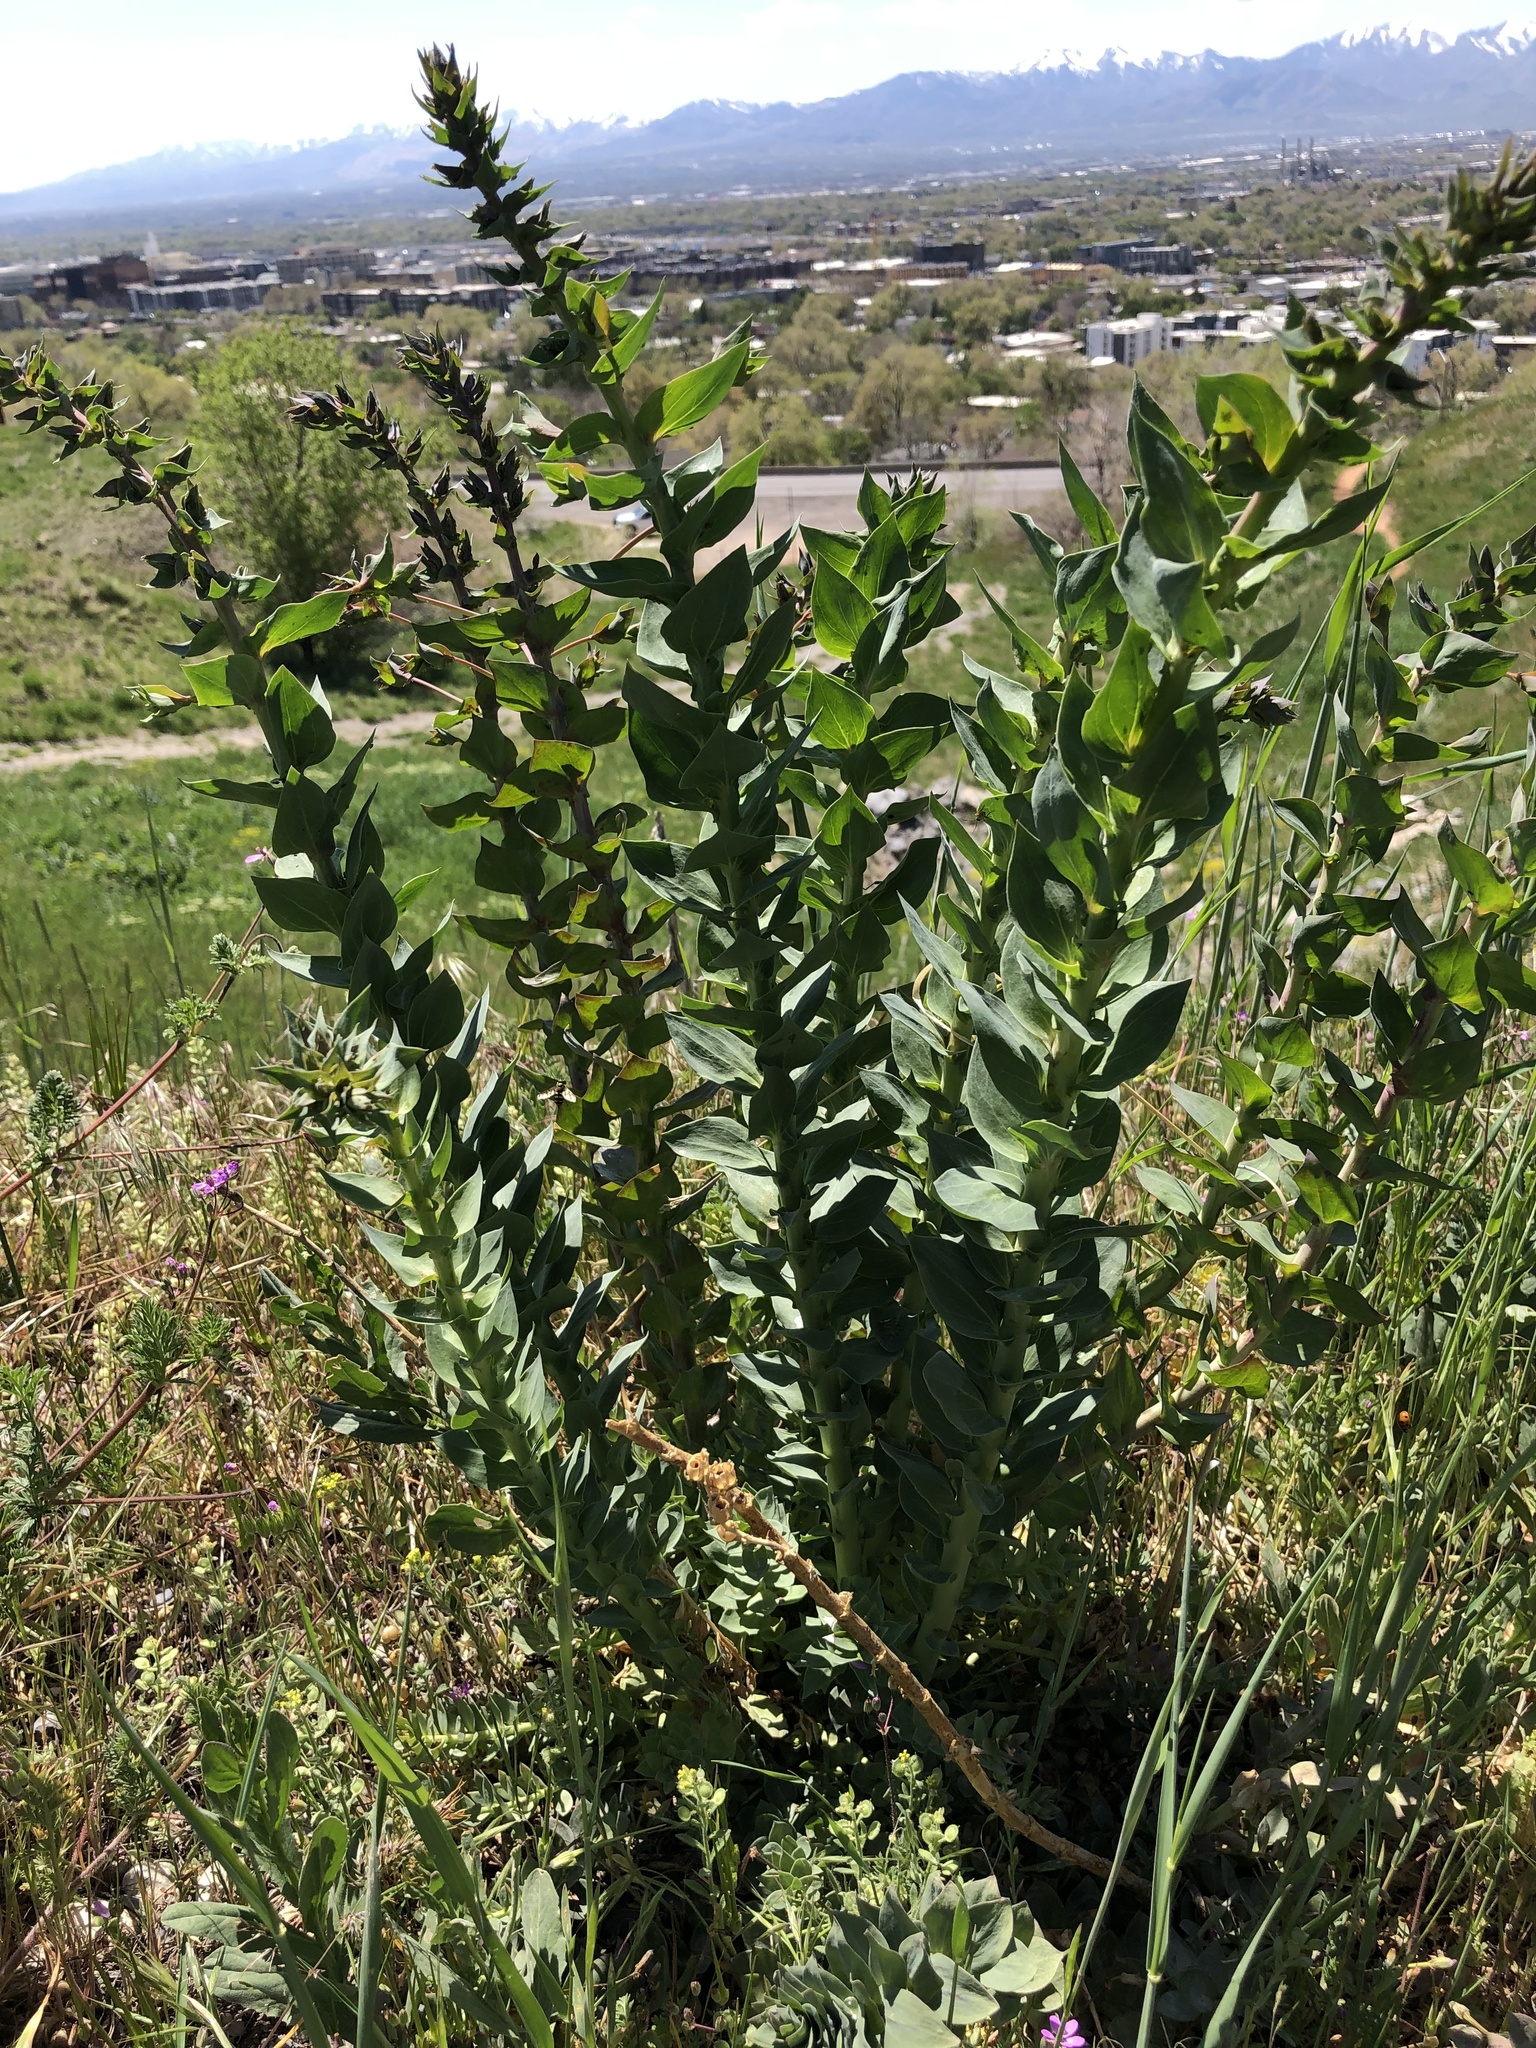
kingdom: Plantae
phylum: Tracheophyta
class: Magnoliopsida
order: Lamiales
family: Plantaginaceae
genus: Linaria
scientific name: Linaria dalmatica
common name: Dalmatian toadflax
